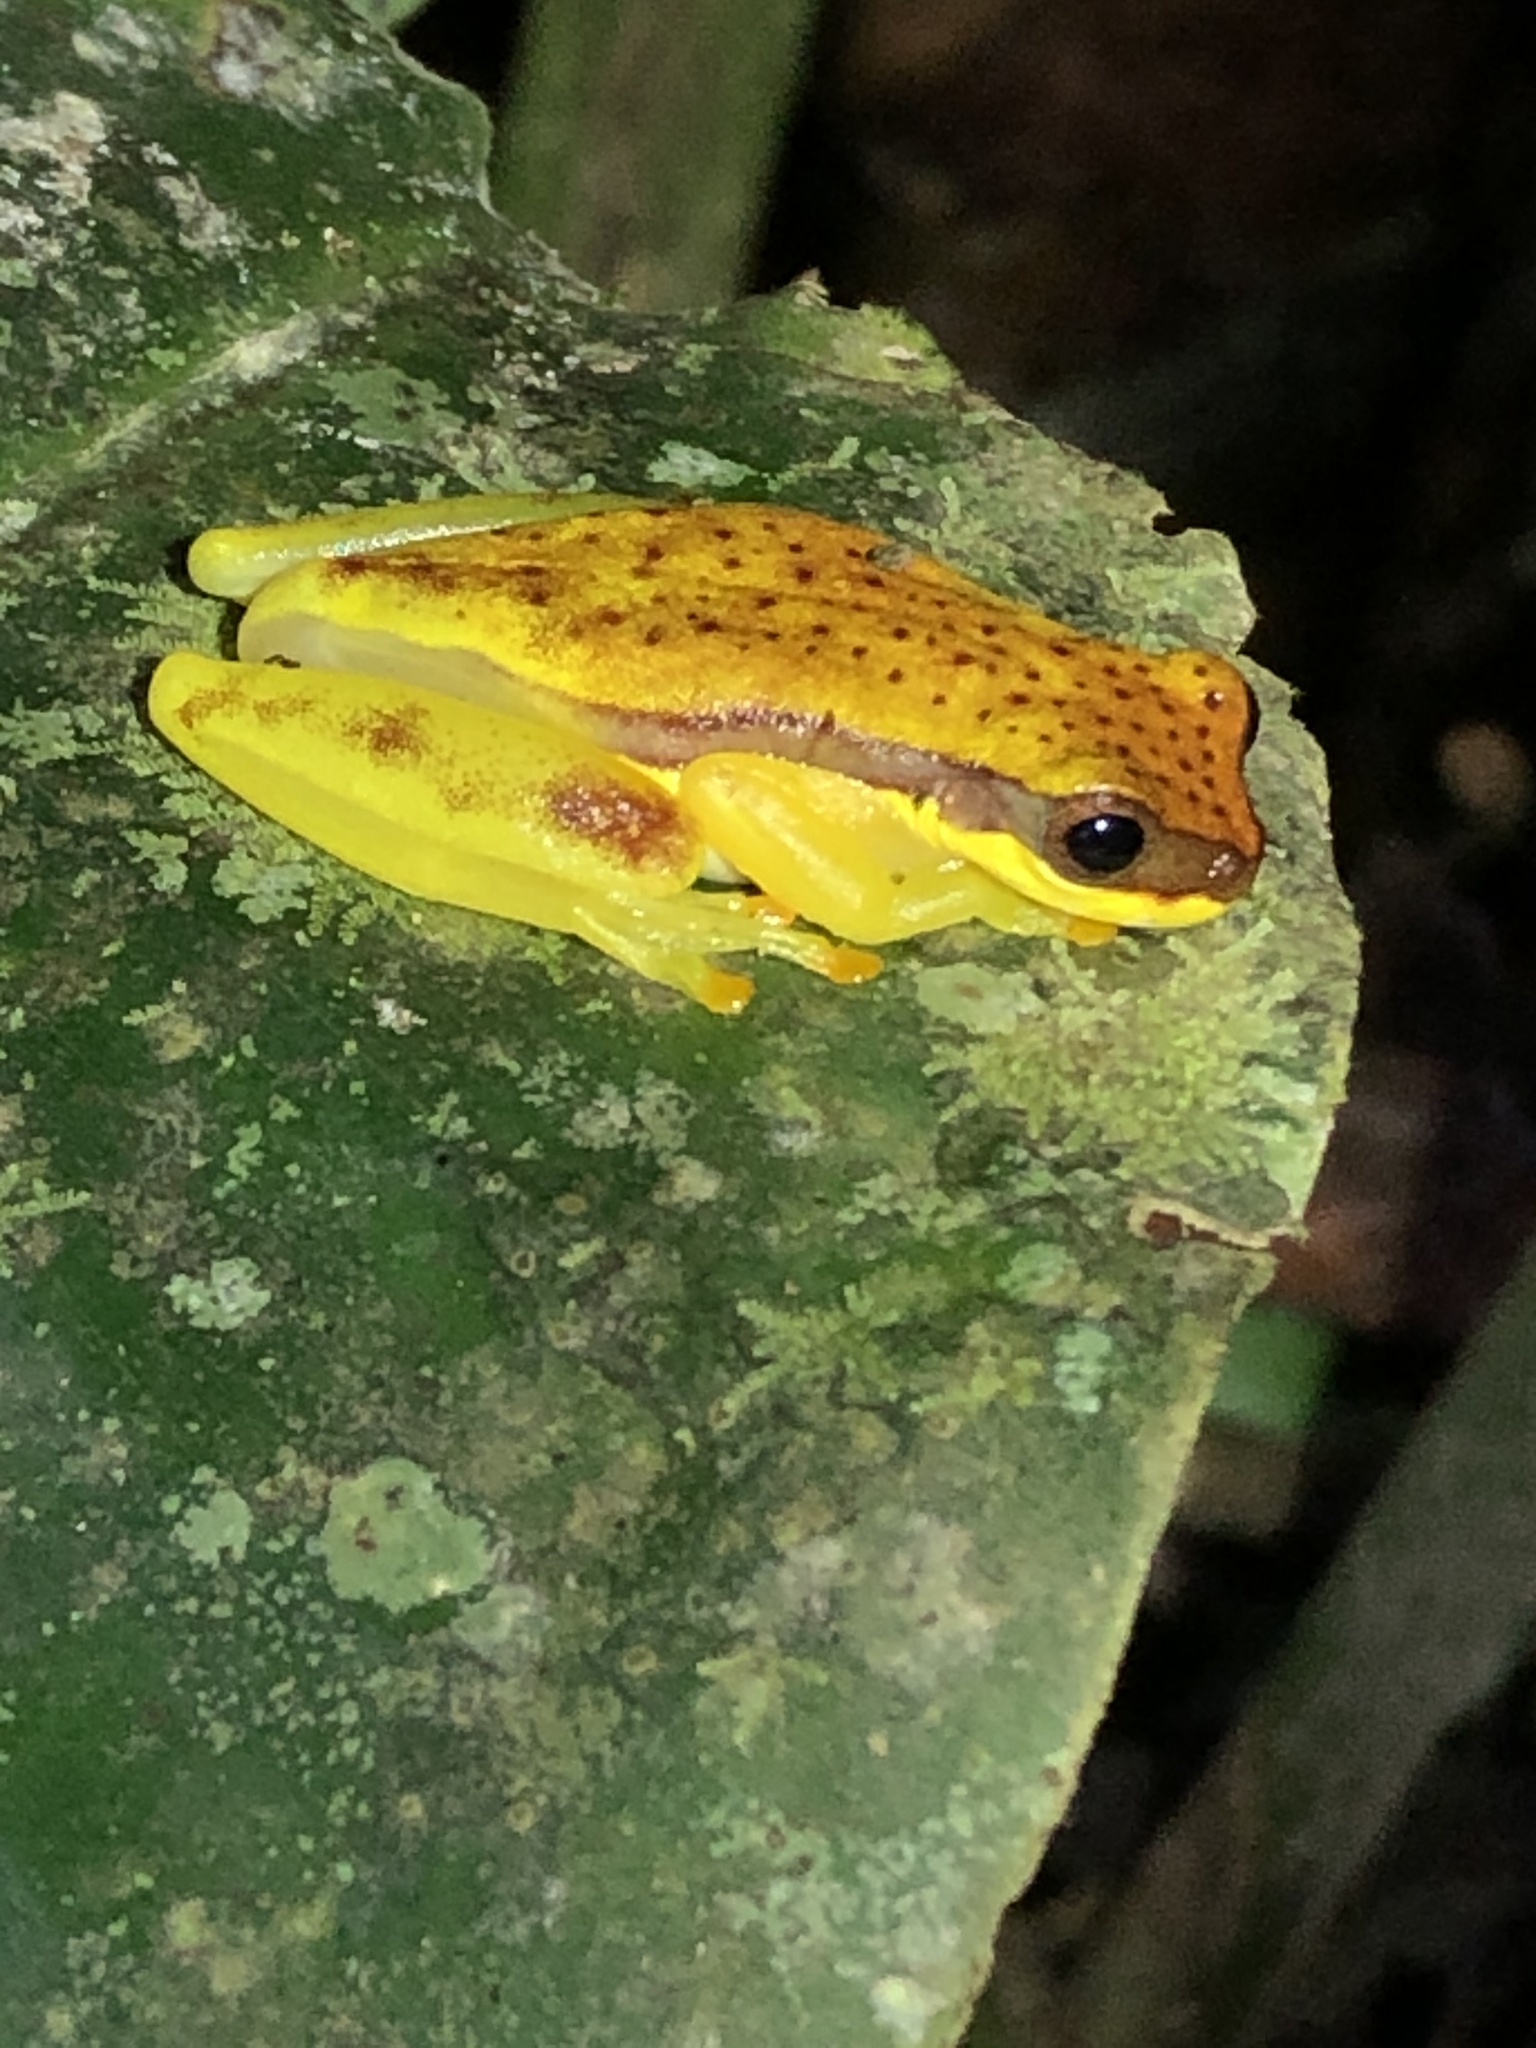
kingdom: Animalia
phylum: Chordata
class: Amphibia
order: Anura
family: Hylidae
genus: Dendropsophus
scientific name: Dendropsophus rhodopeplus
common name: Red-skirted treefrog
